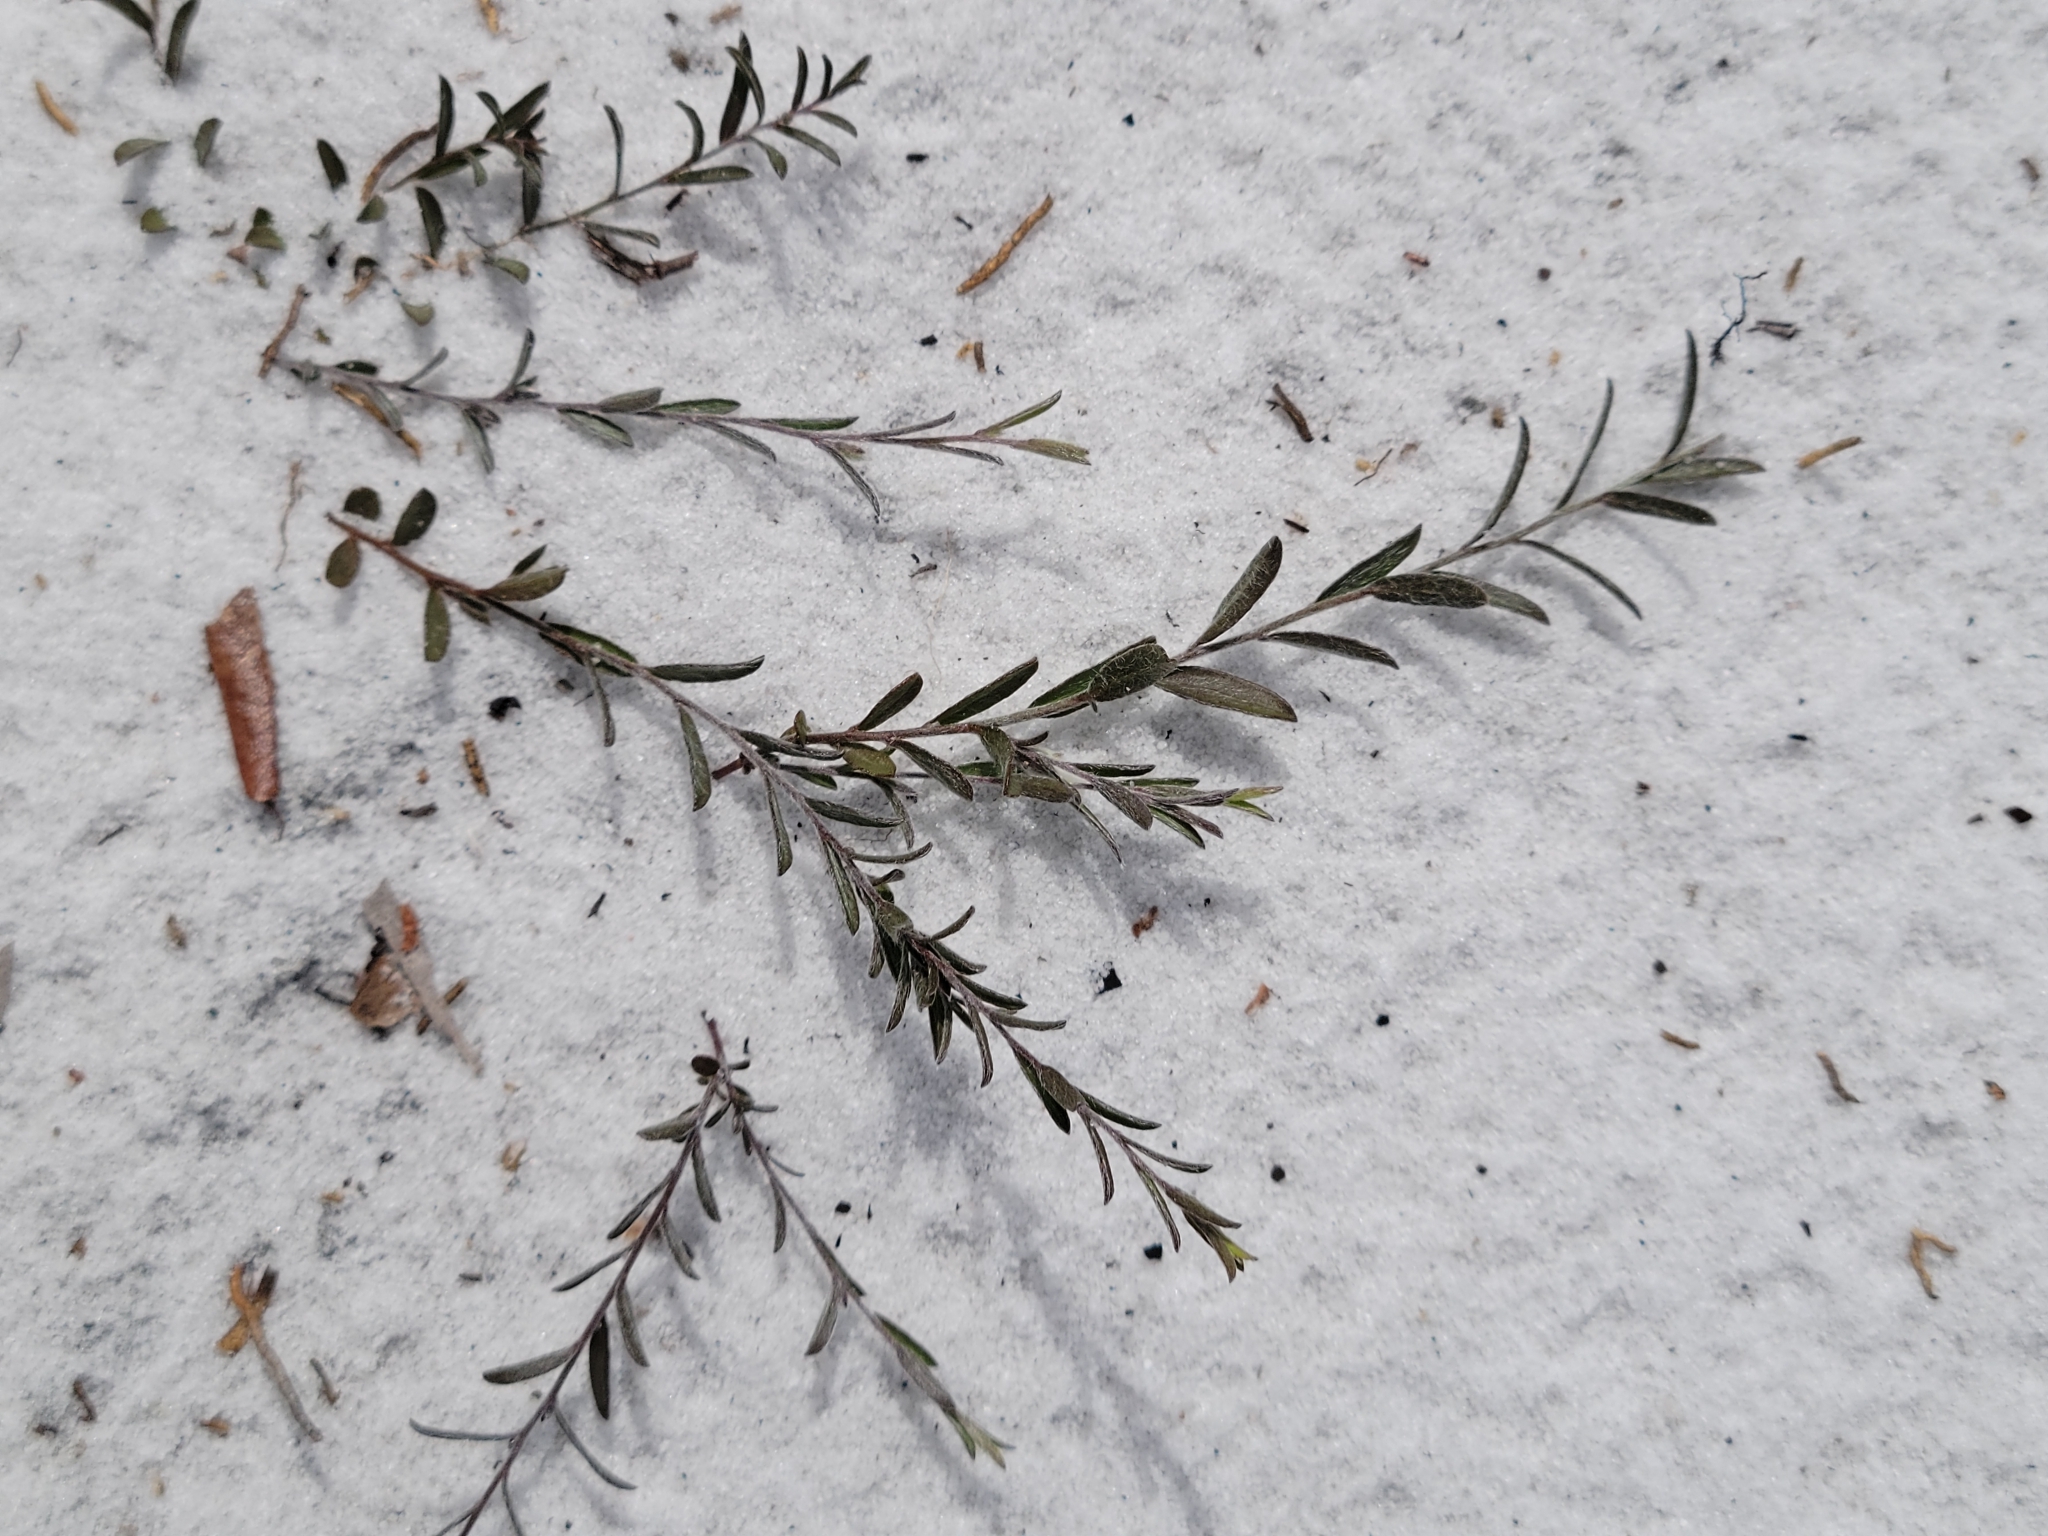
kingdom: Plantae
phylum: Tracheophyta
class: Magnoliopsida
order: Solanales
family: Convolvulaceae
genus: Stylisma
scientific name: Stylisma abdita
